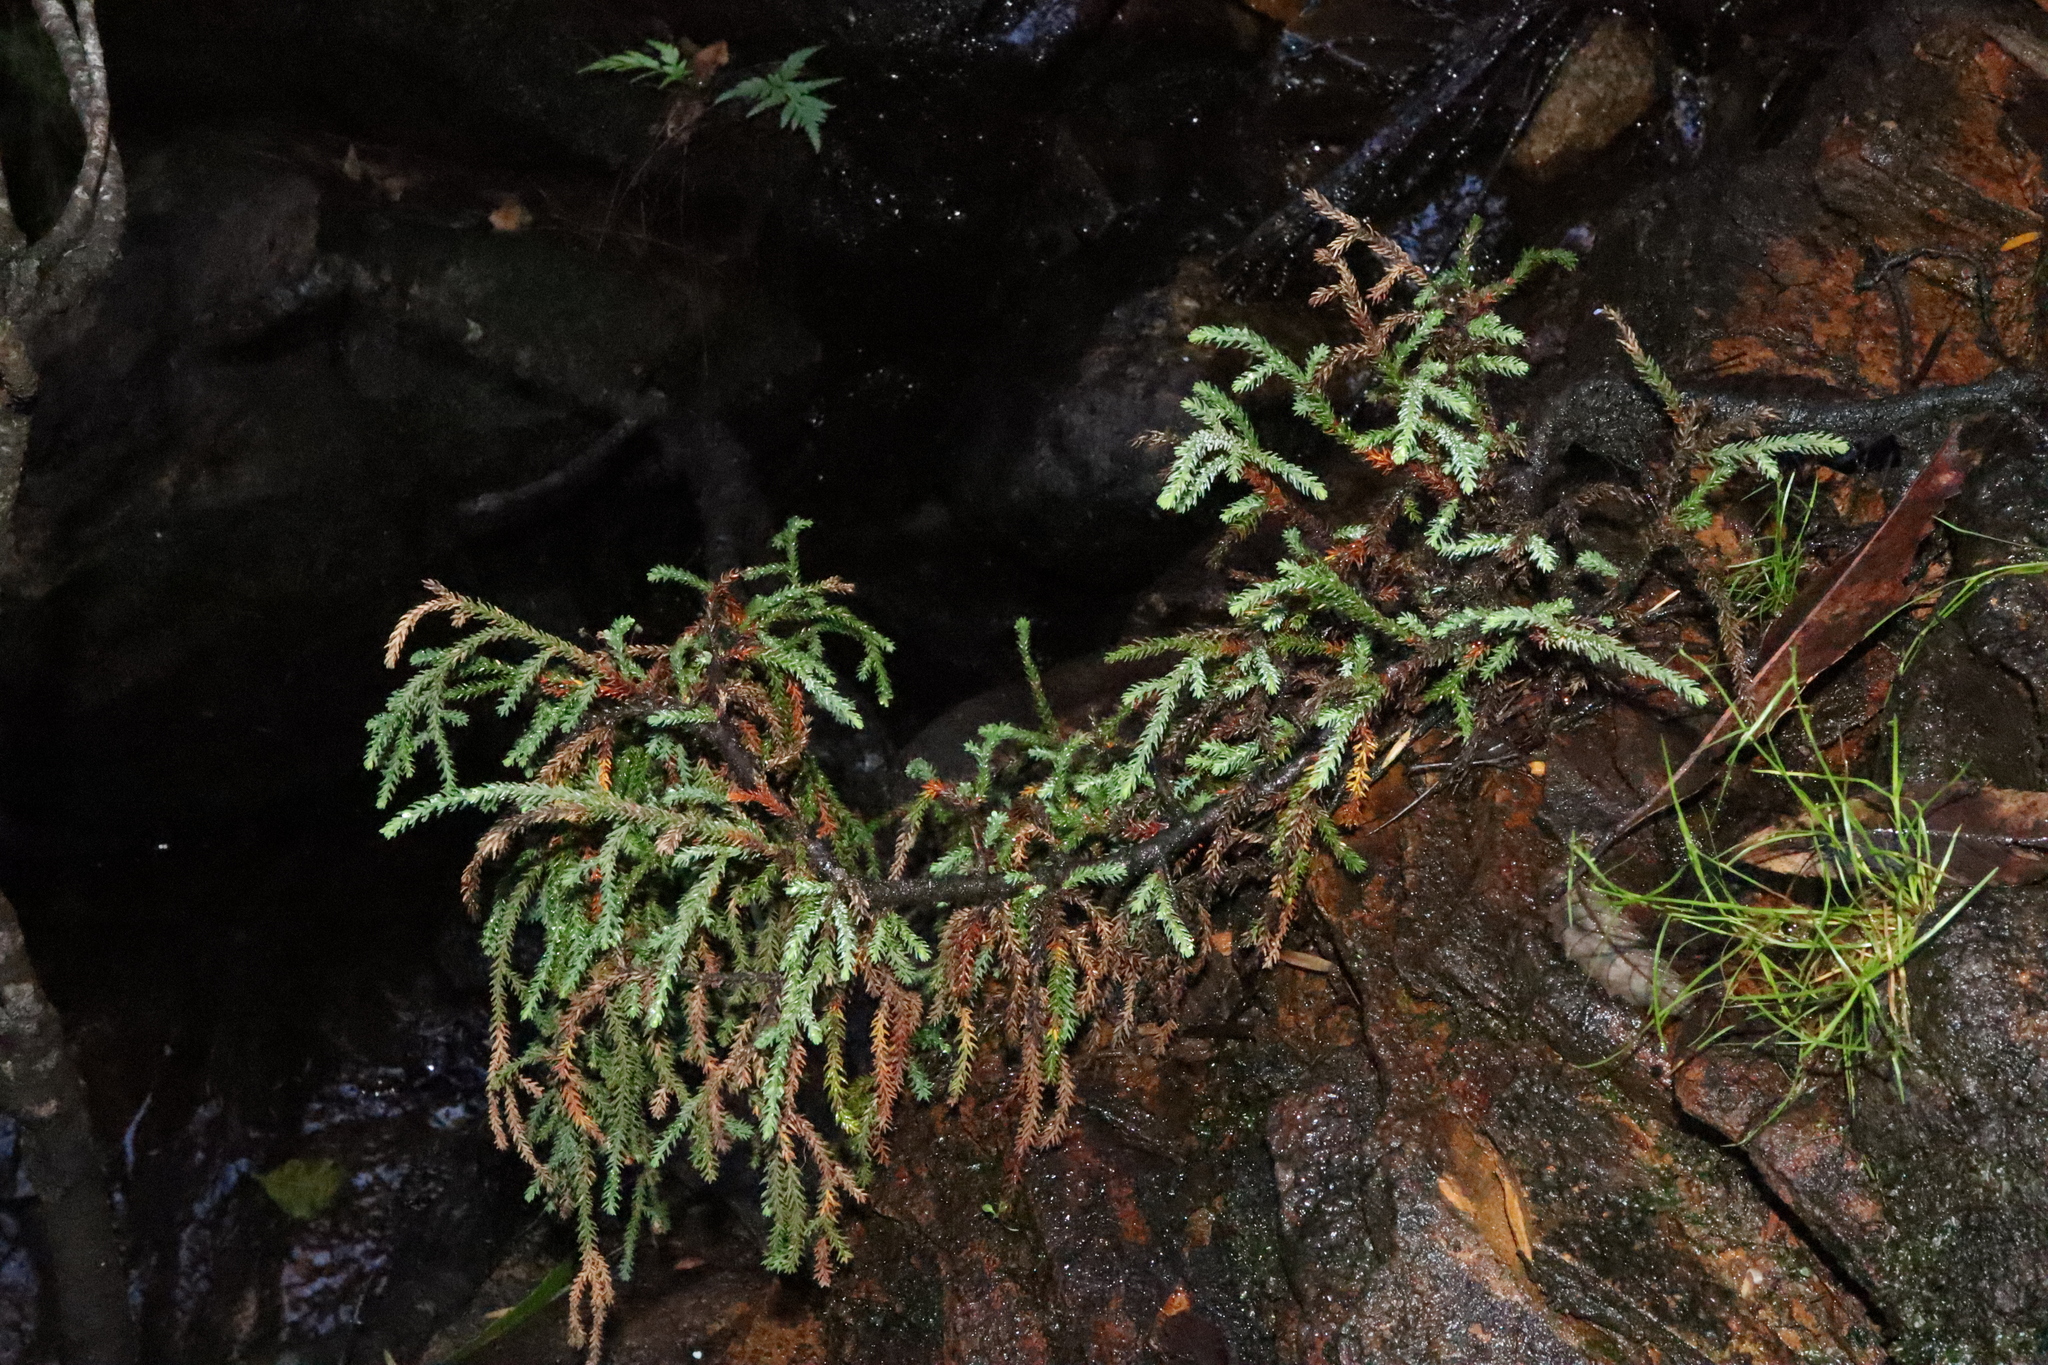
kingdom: Plantae
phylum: Tracheophyta
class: Pinopsida
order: Pinales
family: Podocarpaceae
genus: Pherosphaera
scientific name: Pherosphaera fitzgeraldii
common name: Dwarf mountain pine
